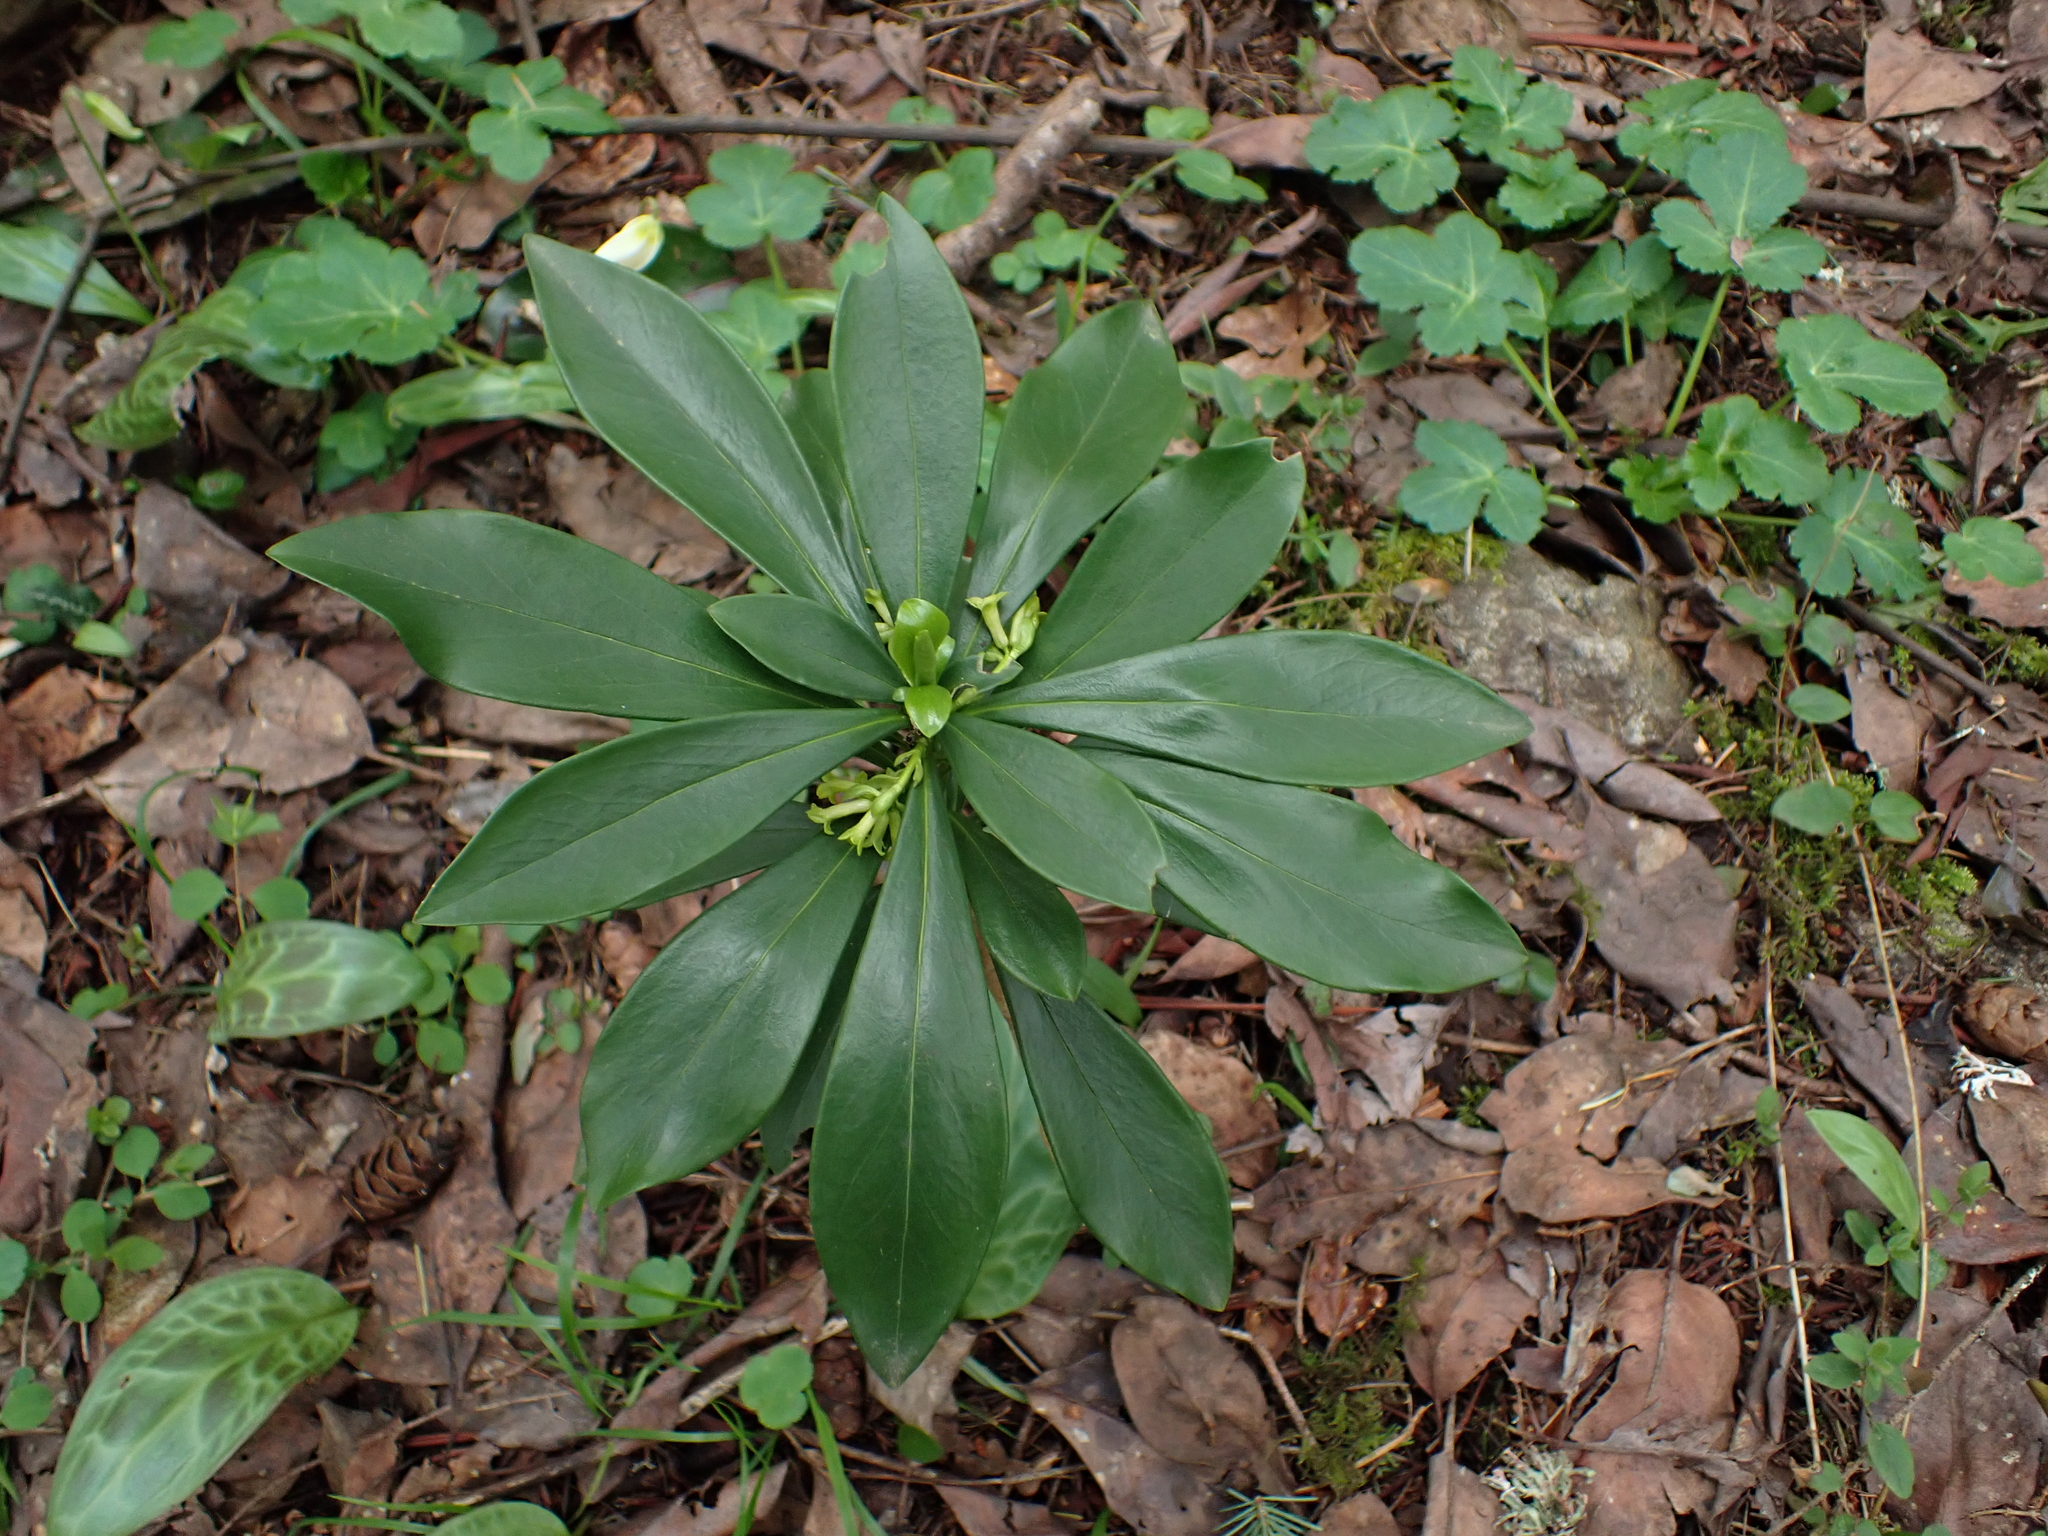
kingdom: Plantae
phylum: Tracheophyta
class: Magnoliopsida
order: Malvales
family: Thymelaeaceae
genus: Daphne
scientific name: Daphne laureola
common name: Spurge-laurel
